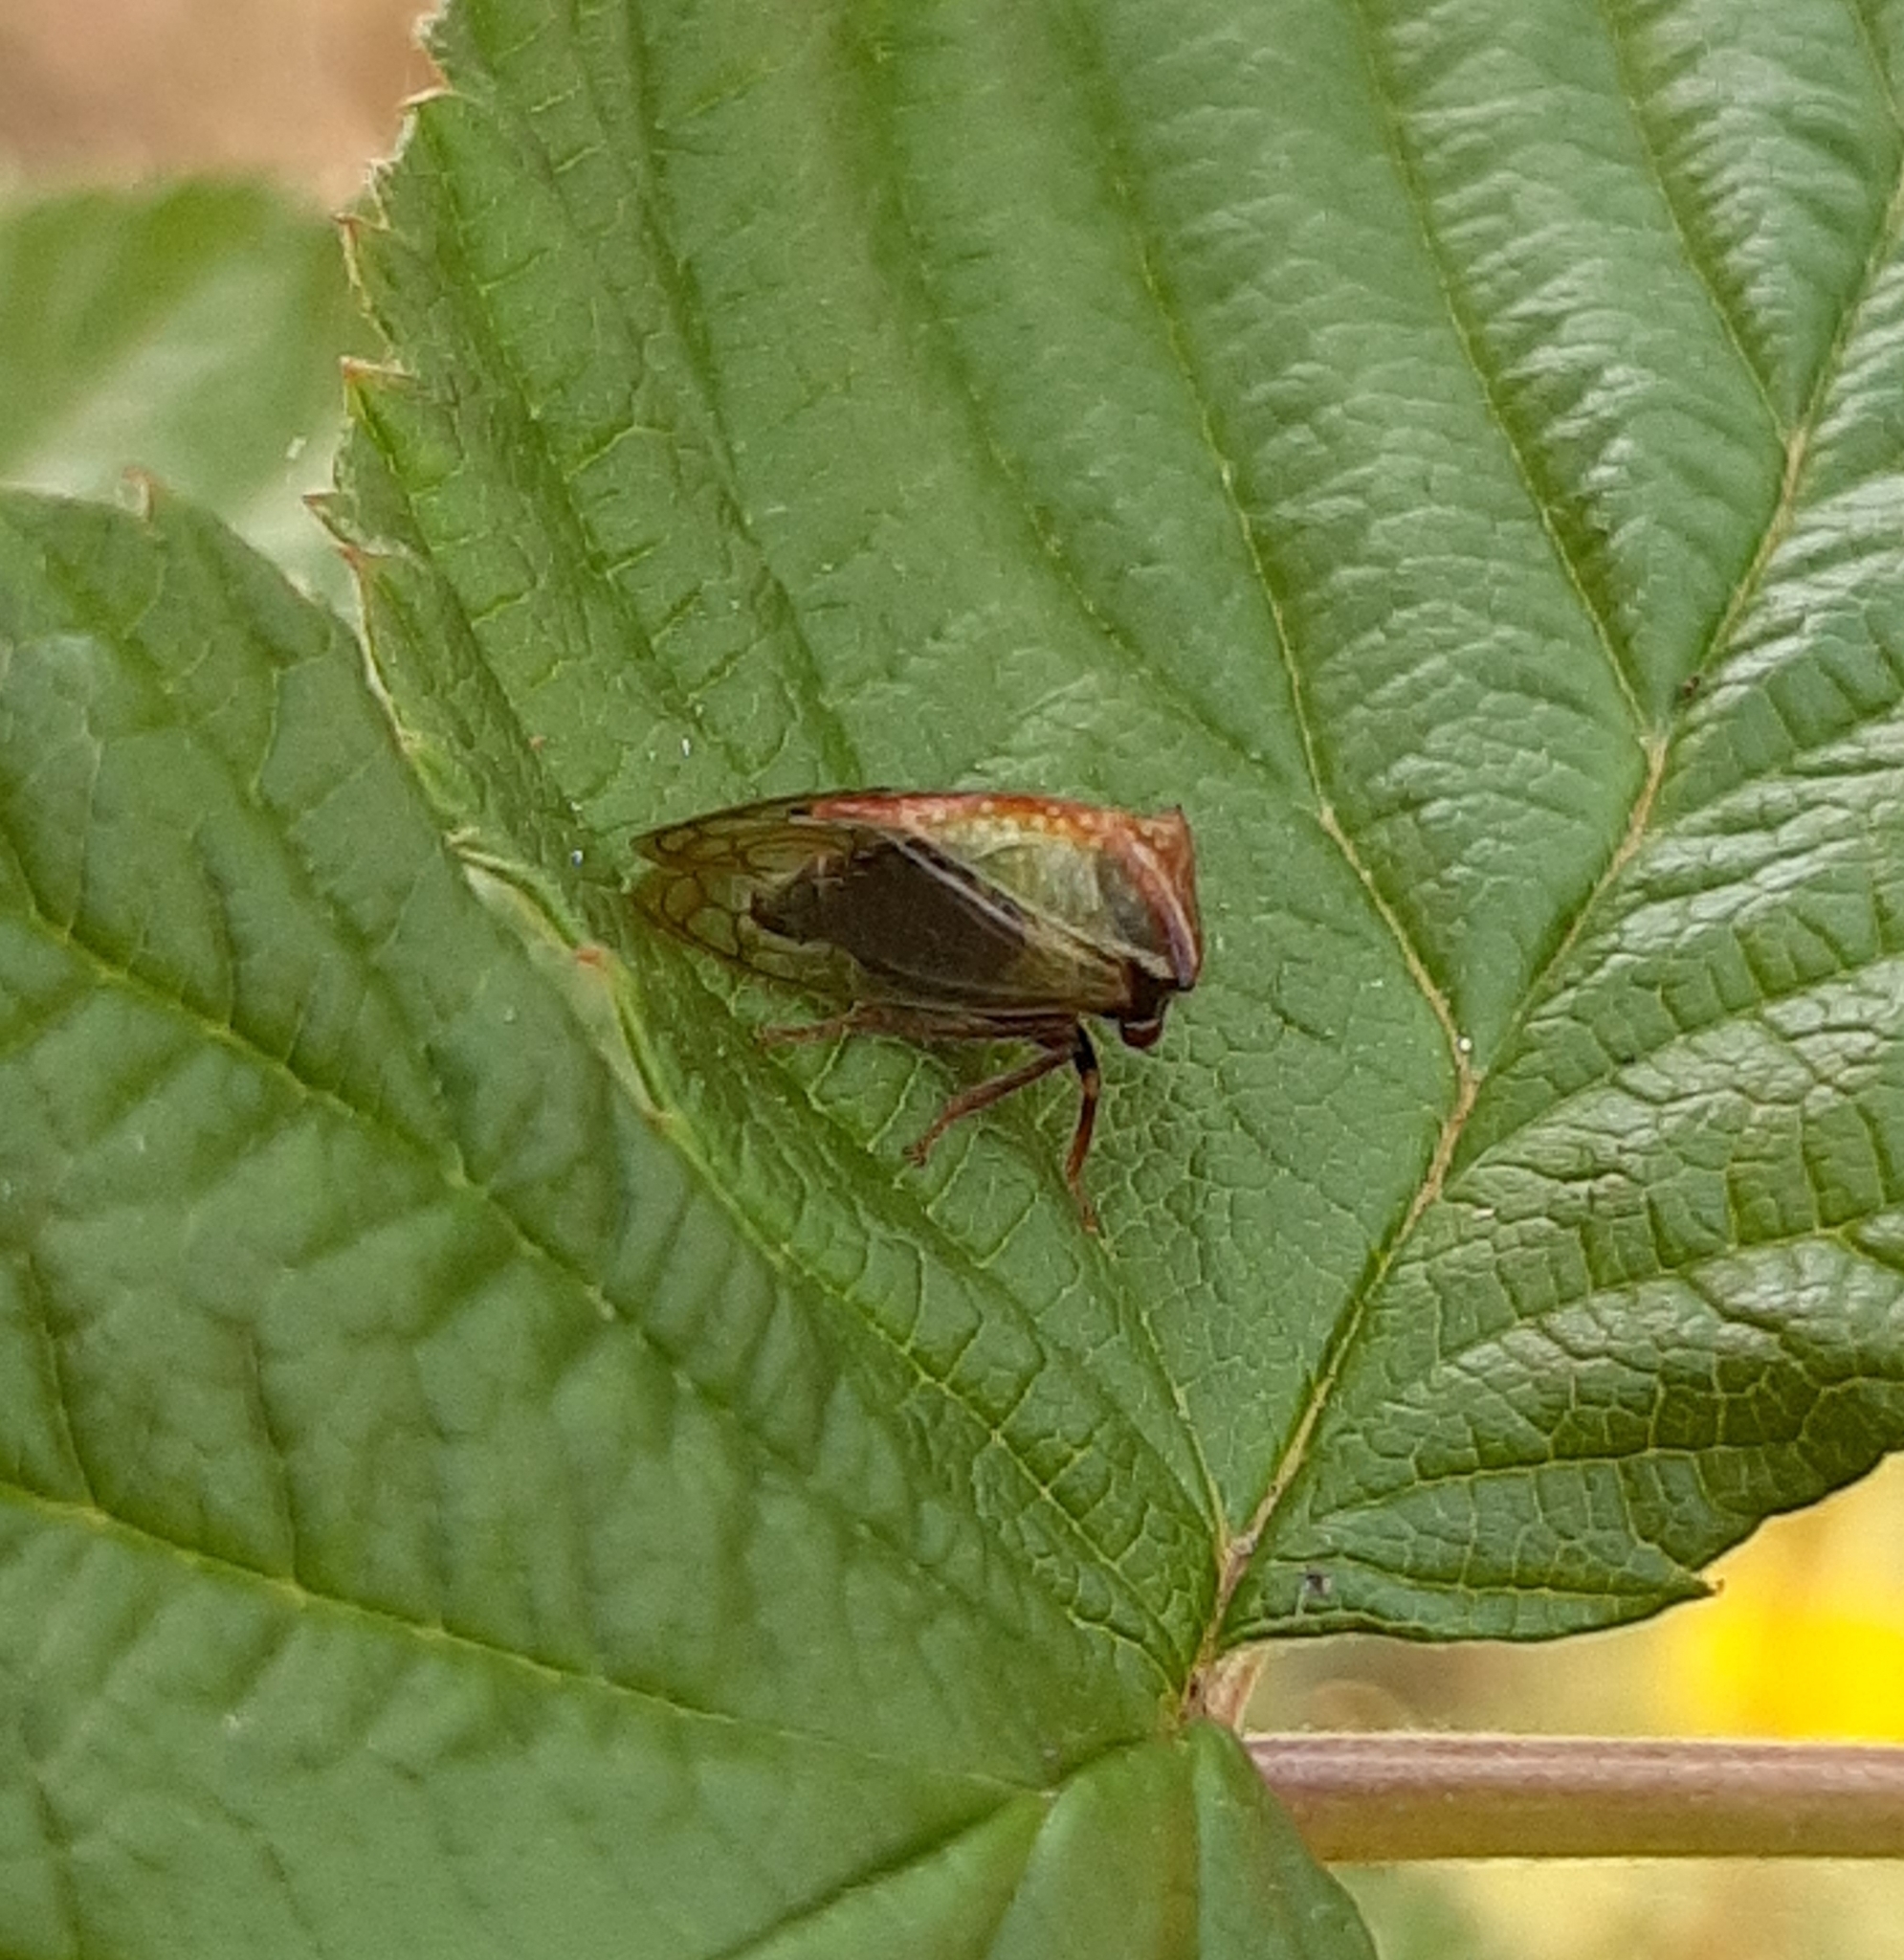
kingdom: Animalia
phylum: Arthropoda
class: Insecta
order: Hemiptera
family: Membracidae
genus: Stictocephala
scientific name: Stictocephala basalis
